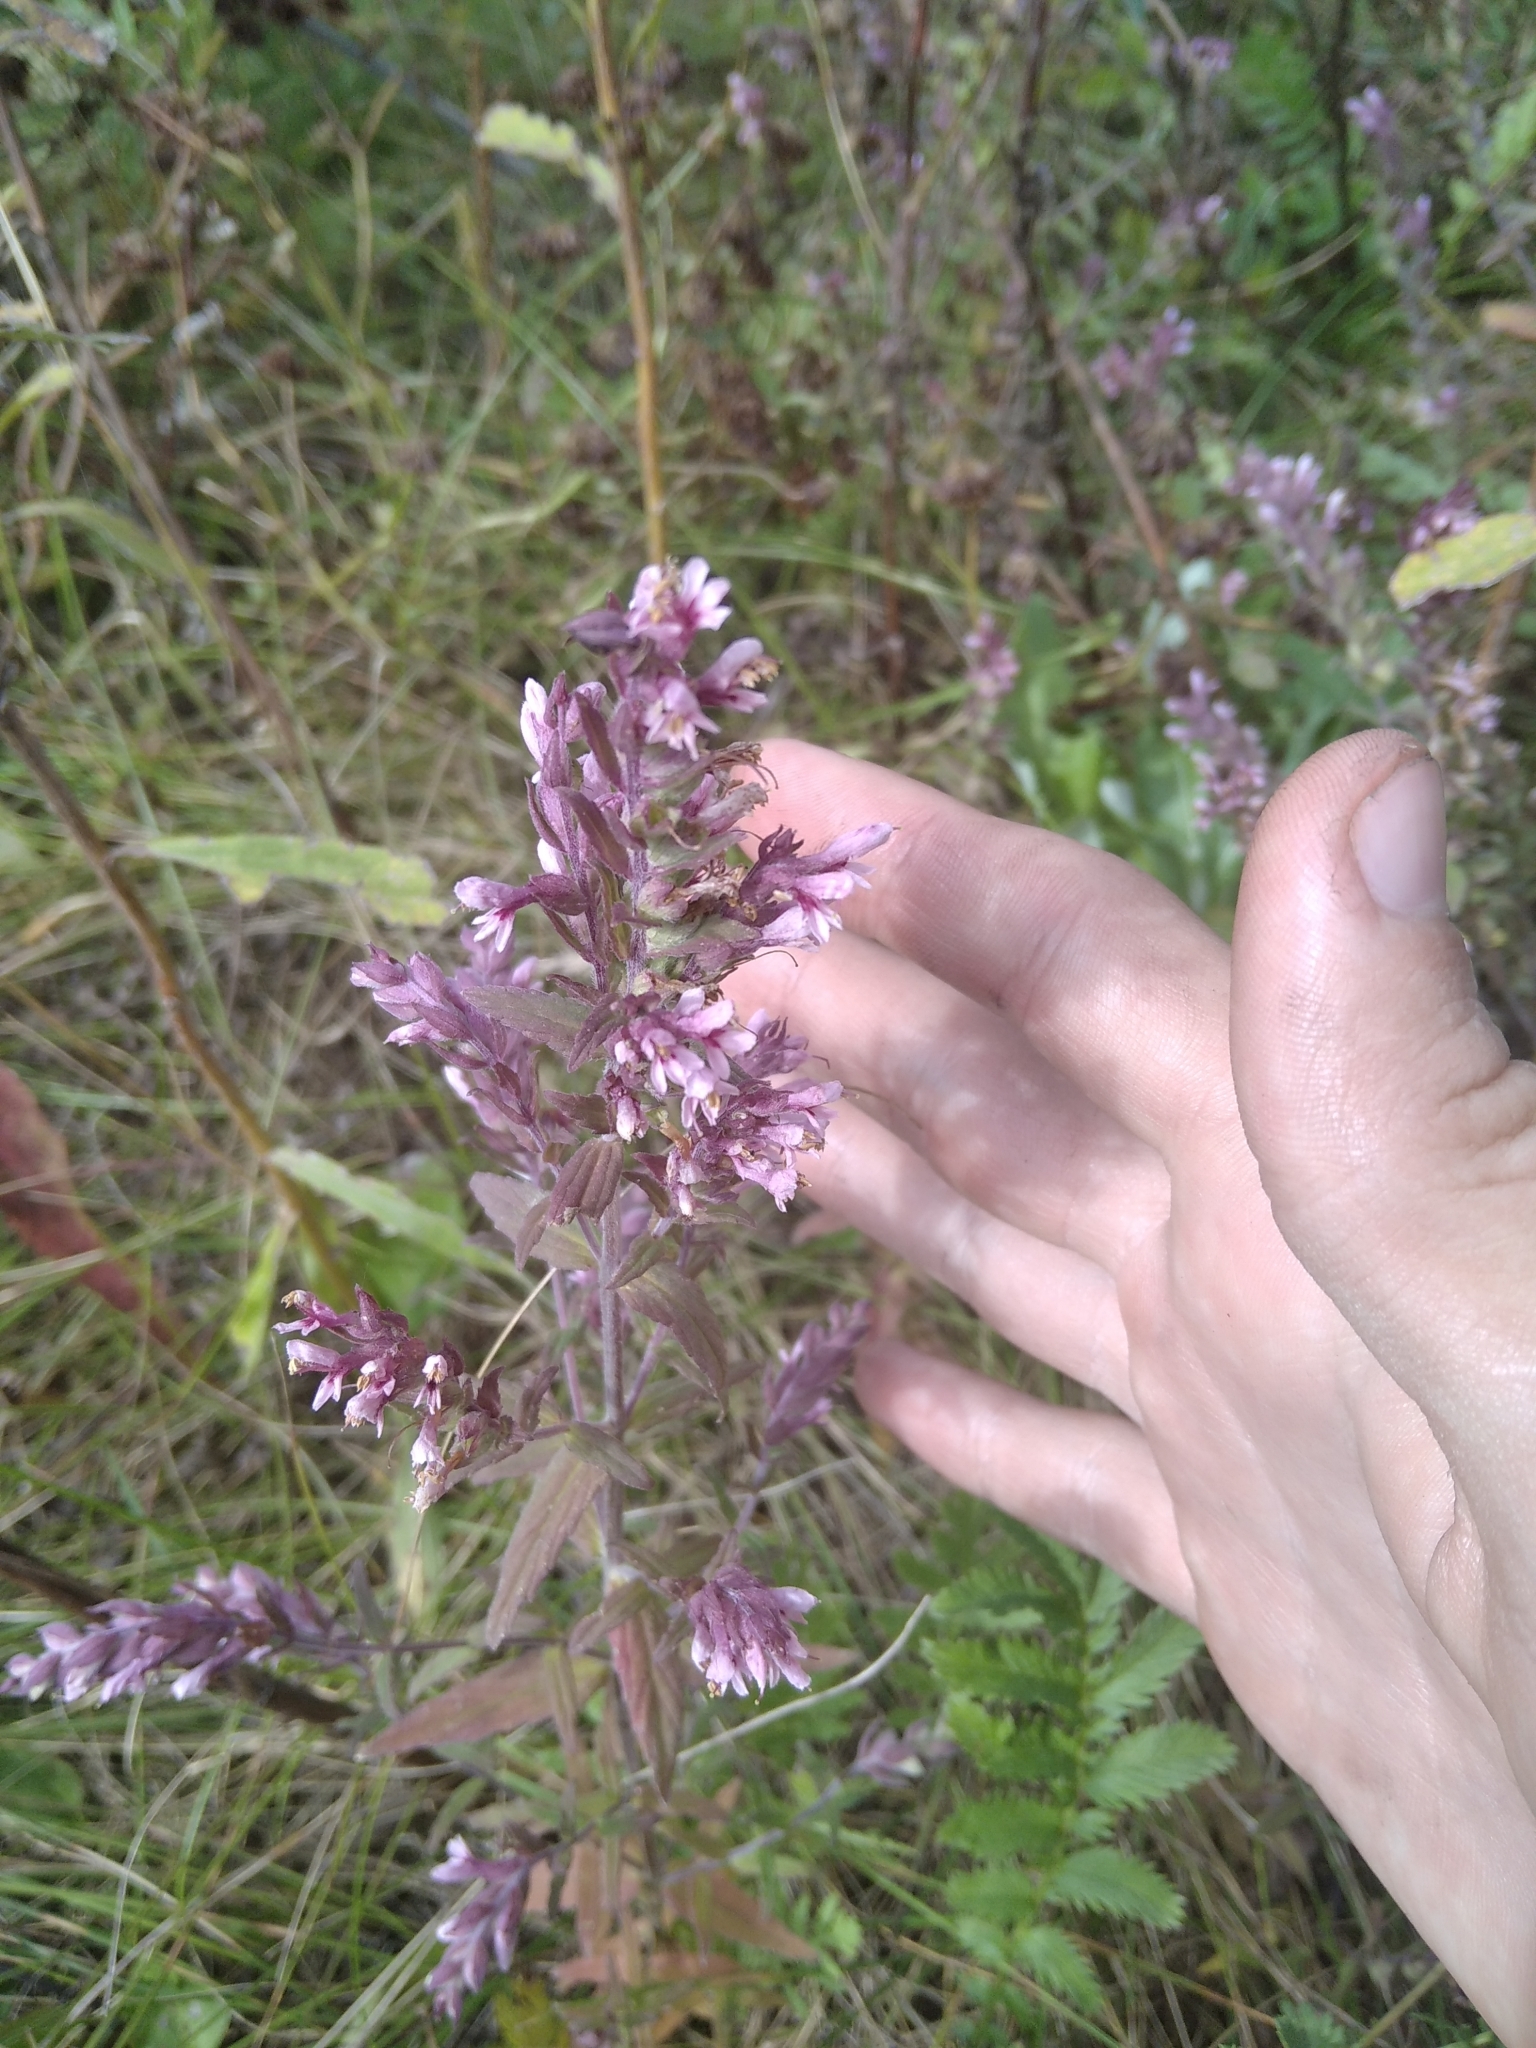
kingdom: Plantae
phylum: Tracheophyta
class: Magnoliopsida
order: Lamiales
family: Orobanchaceae
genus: Odontites
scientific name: Odontites vulgaris
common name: Broomrape
